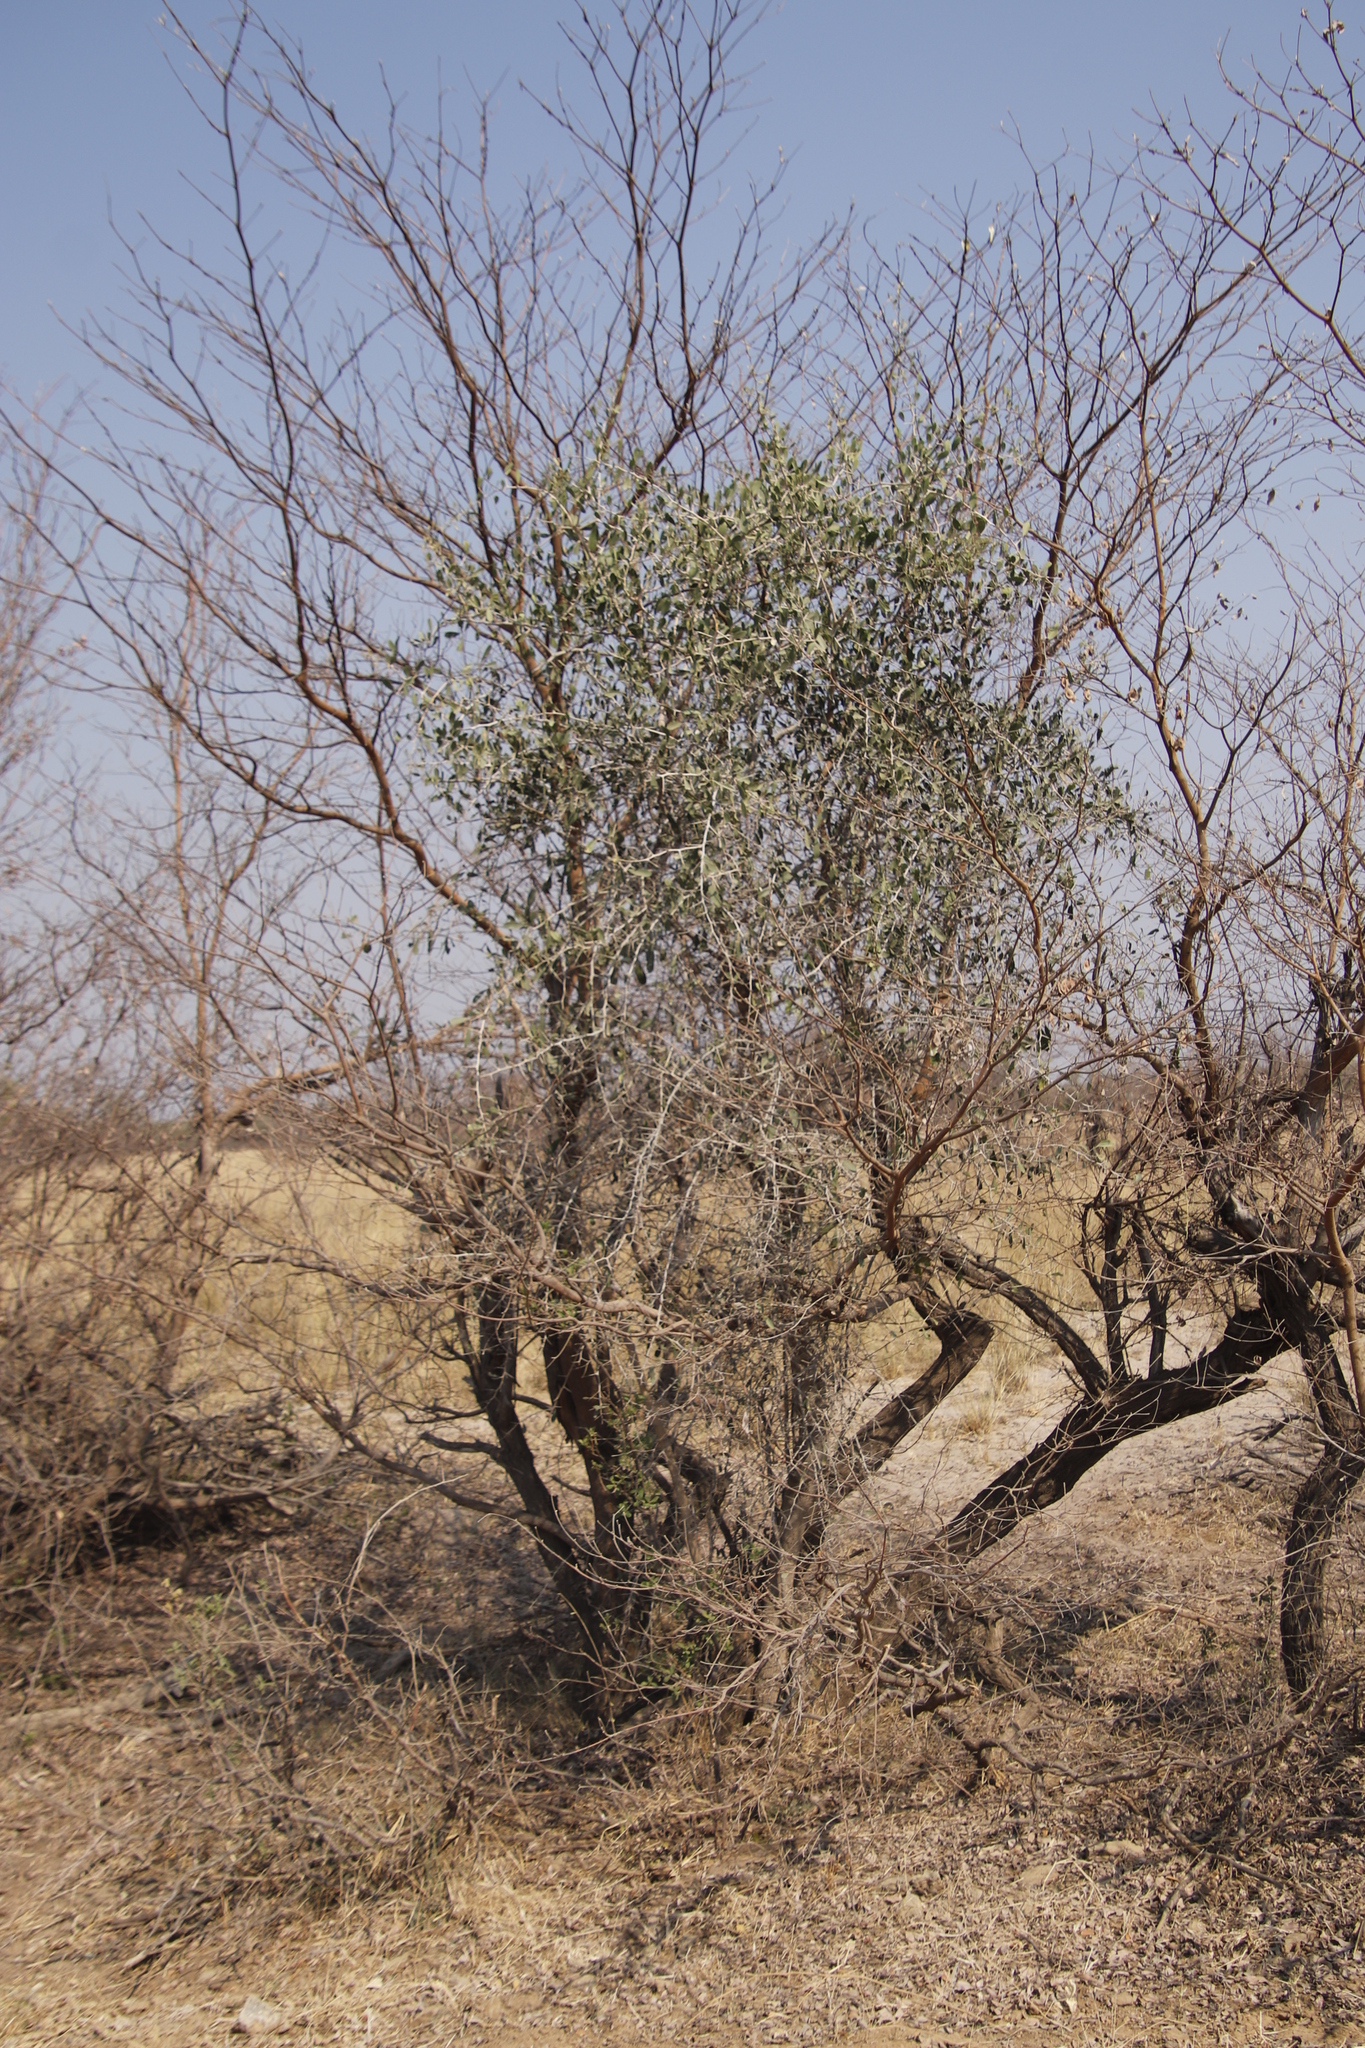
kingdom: Plantae
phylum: Tracheophyta
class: Magnoliopsida
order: Celastrales
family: Celastraceae
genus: Gymnosporia
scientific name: Gymnosporia senegalensis
